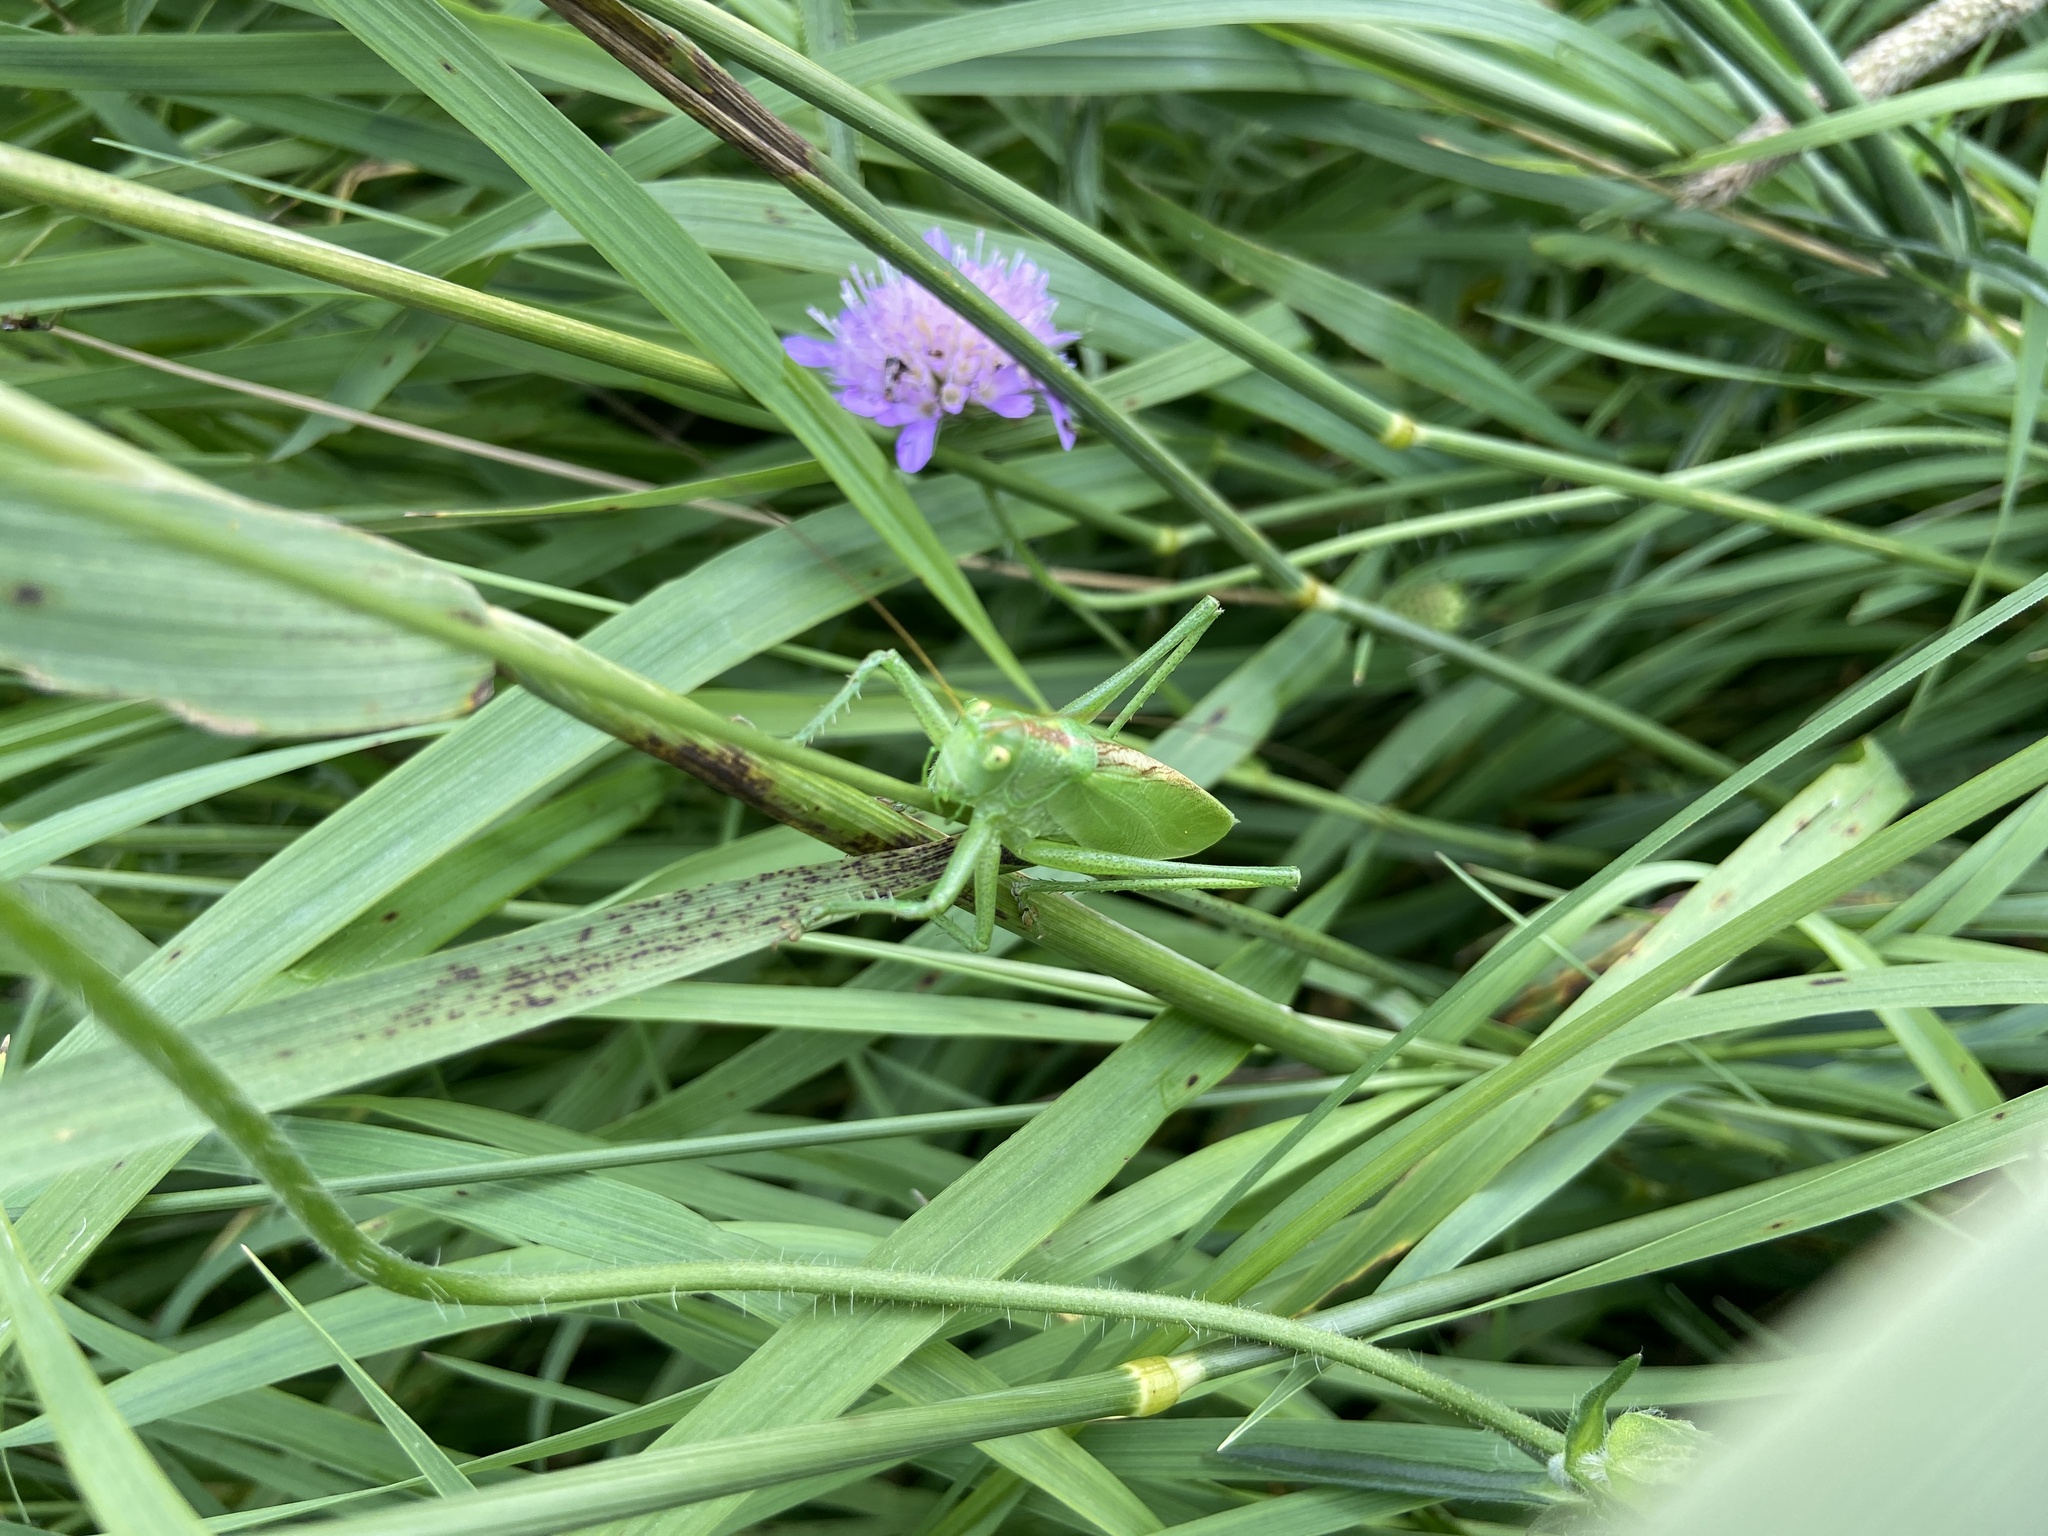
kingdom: Animalia
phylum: Arthropoda
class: Insecta
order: Orthoptera
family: Tettigoniidae
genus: Tettigonia
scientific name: Tettigonia cantans
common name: Upland green bush-cricket
